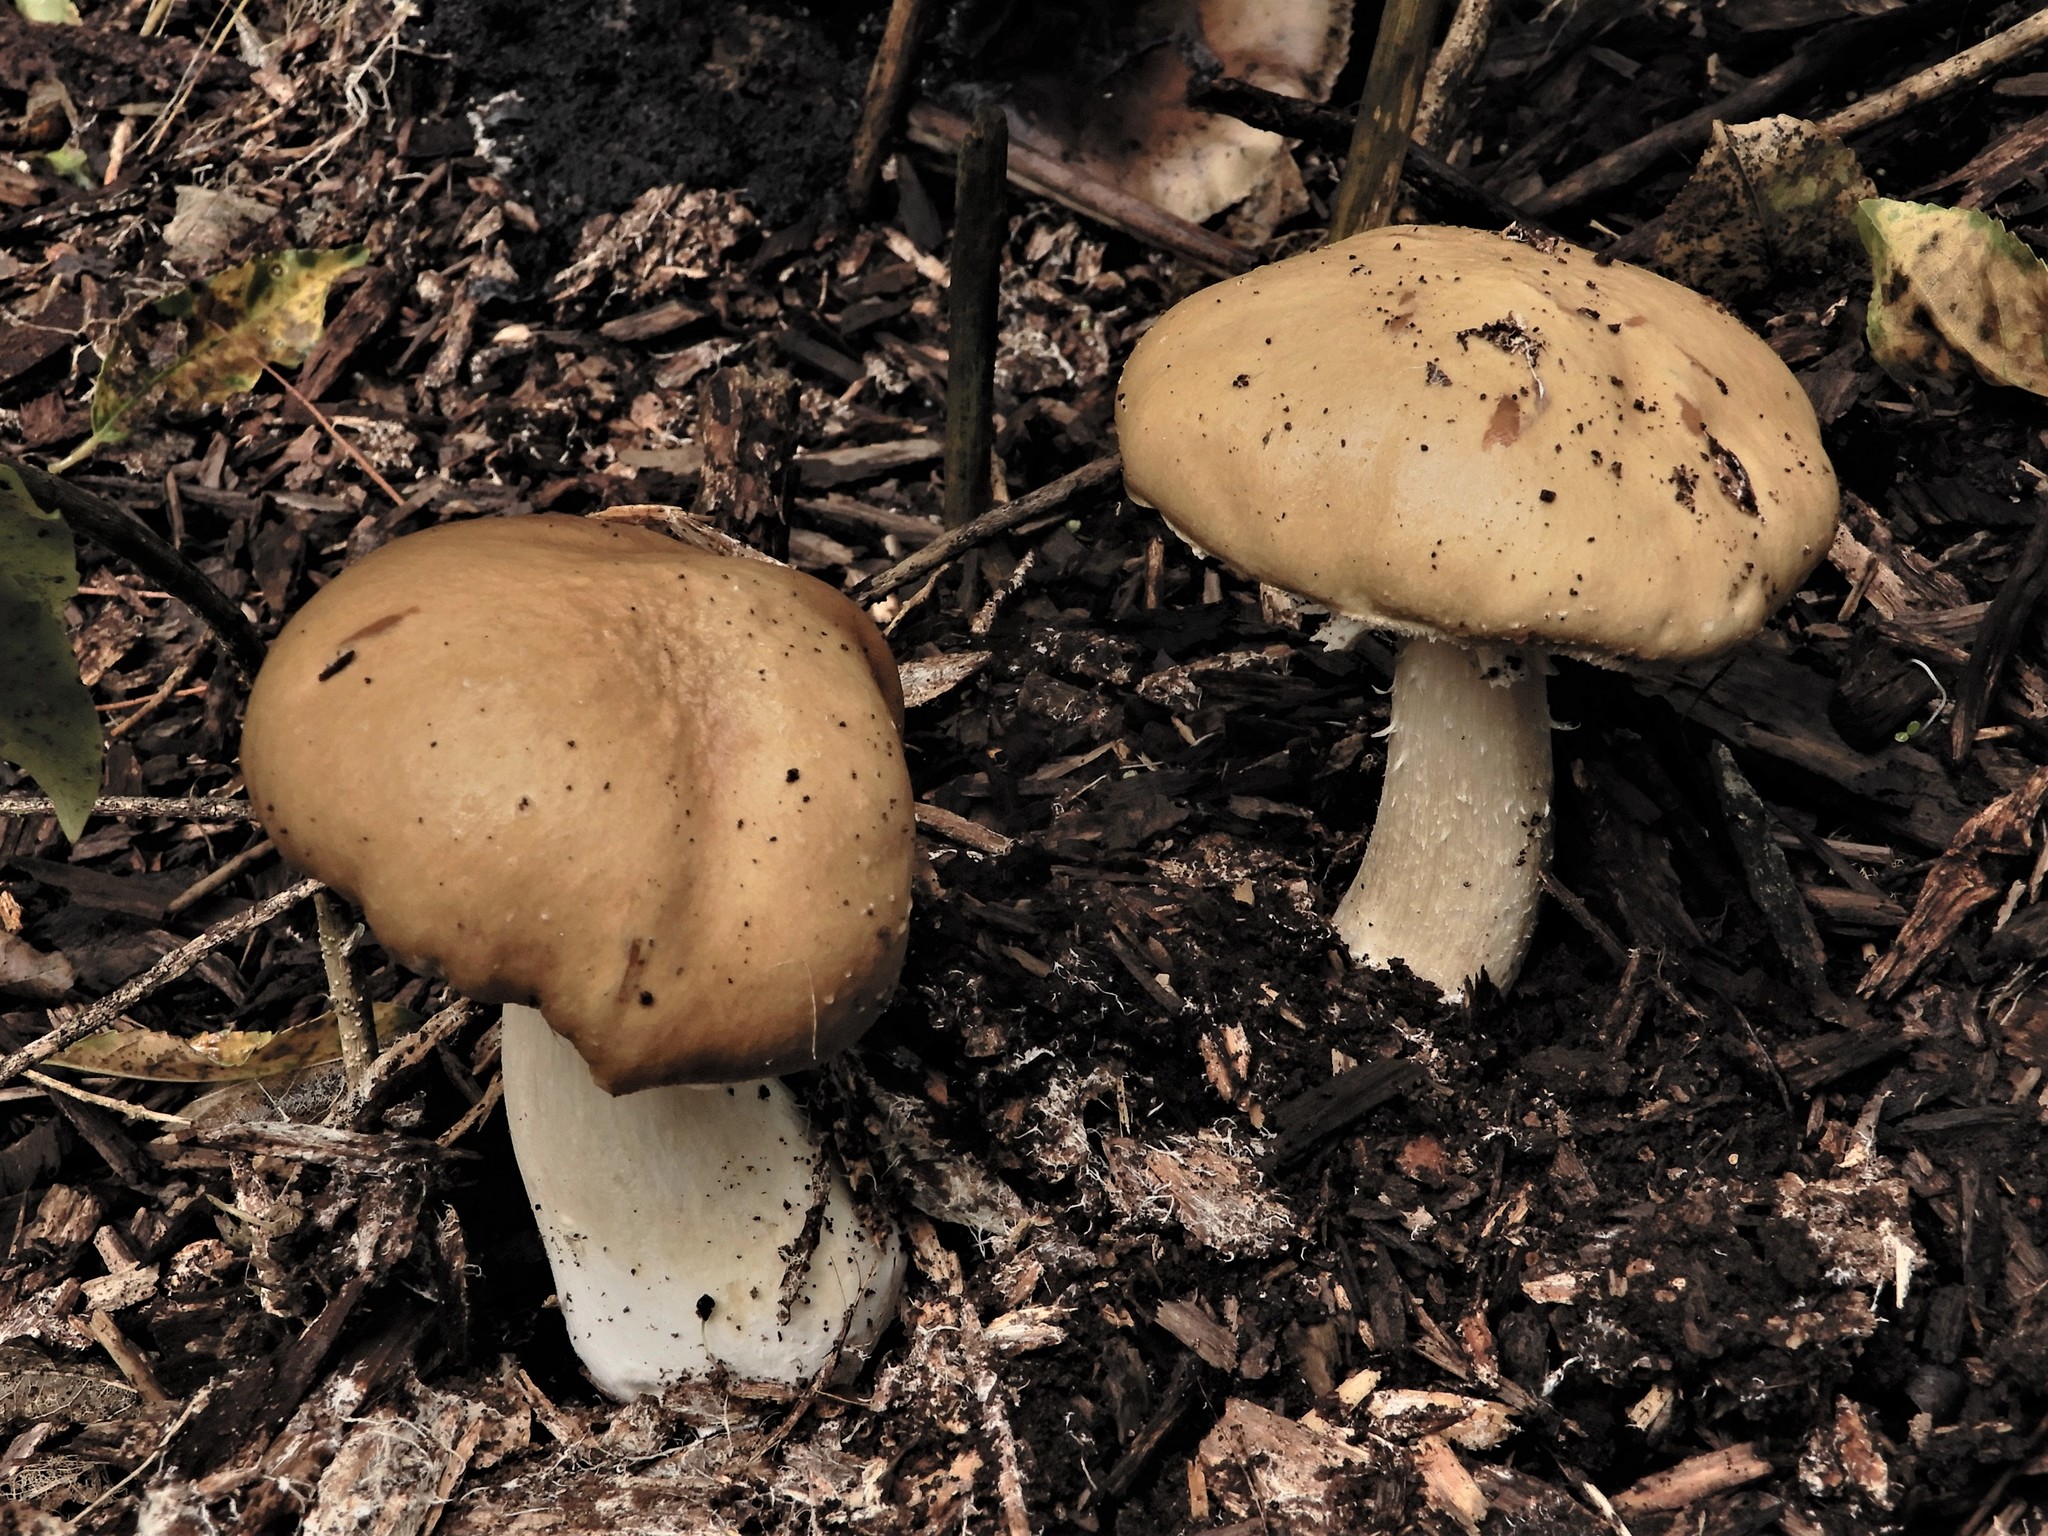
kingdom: Fungi
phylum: Basidiomycota
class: Agaricomycetes
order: Agaricales
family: Strophariaceae
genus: Stropharia
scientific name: Stropharia rugosoannulata
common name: Wine roundhead
